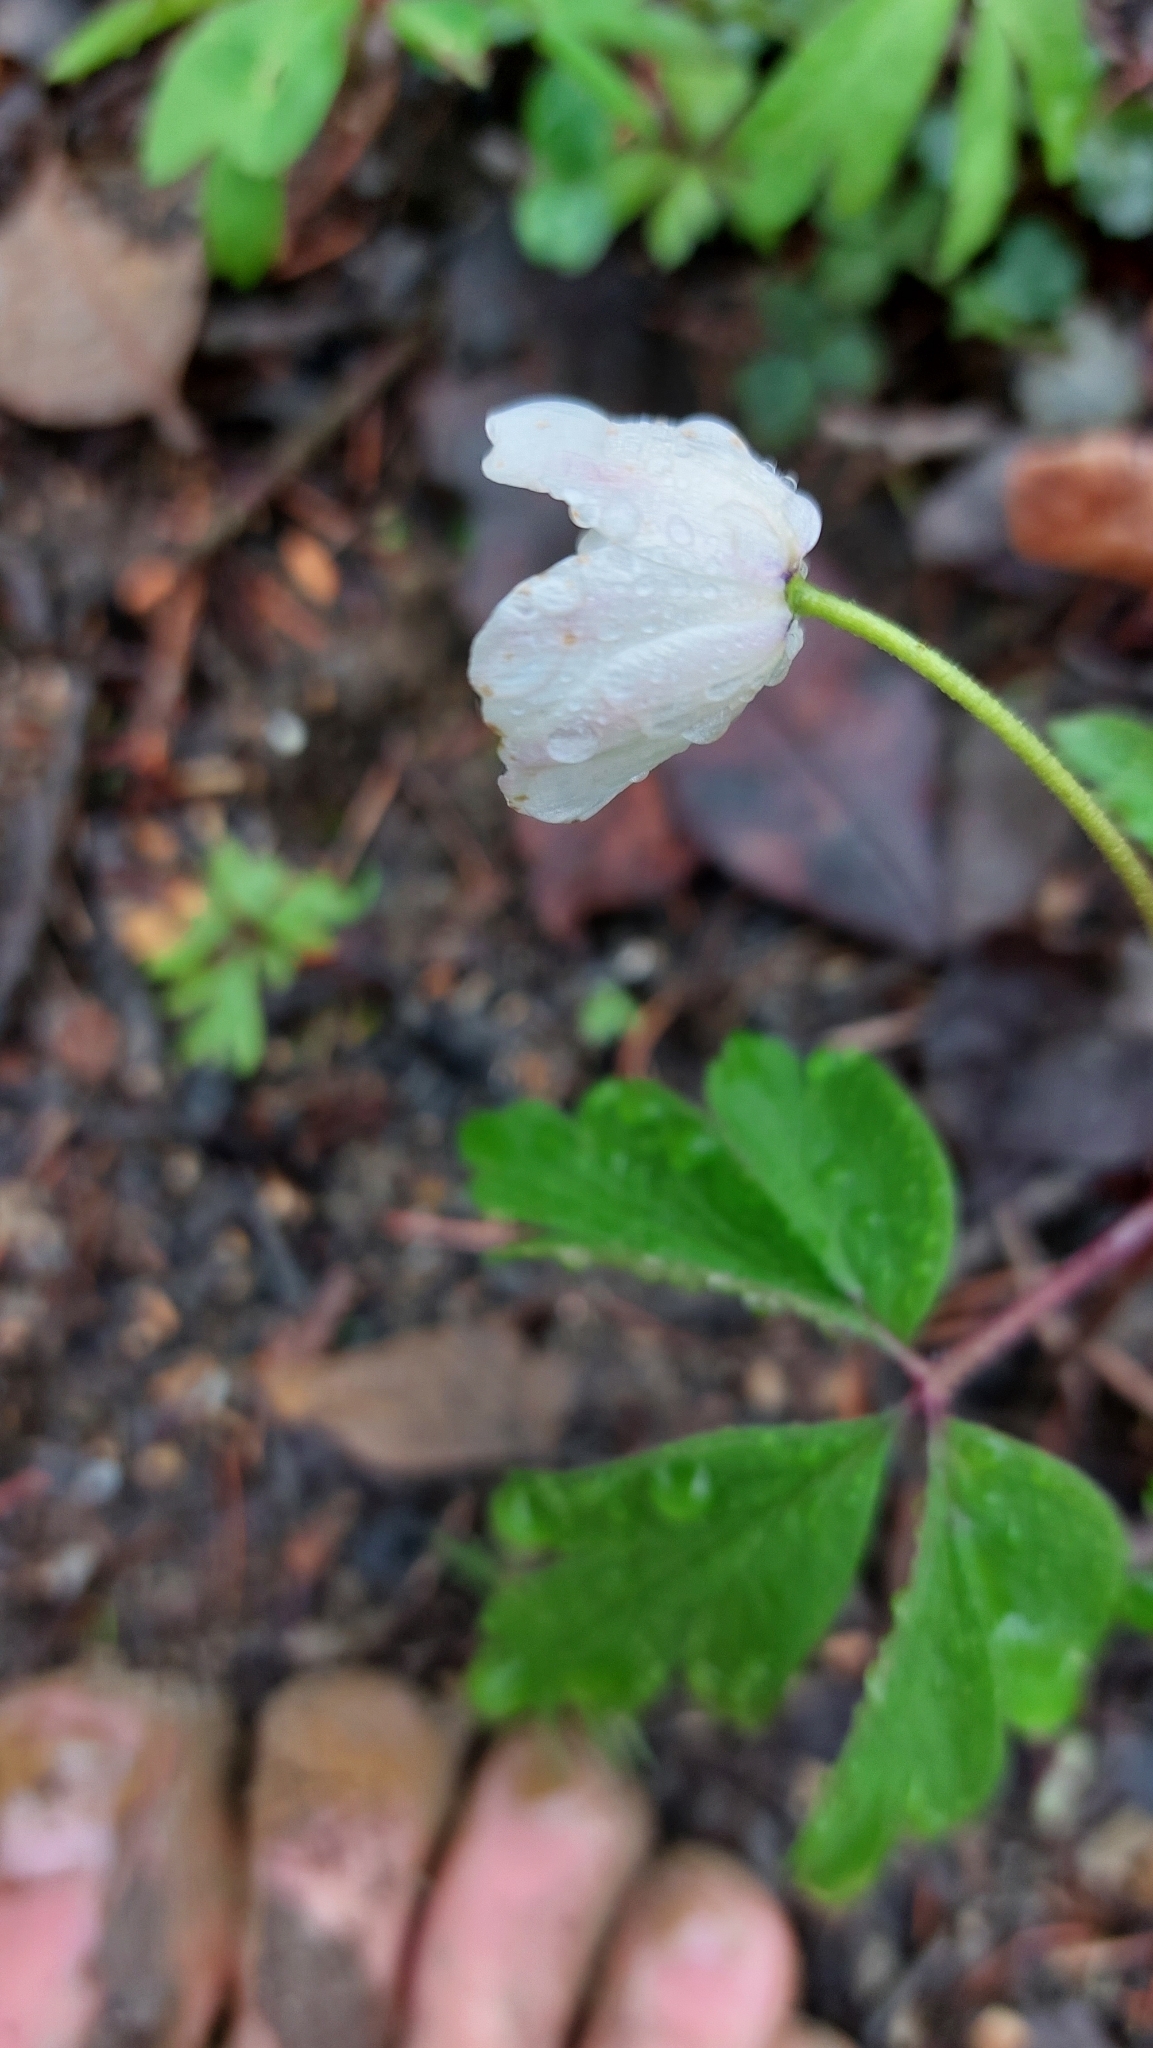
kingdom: Plantae
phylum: Tracheophyta
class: Magnoliopsida
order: Ranunculales
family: Ranunculaceae
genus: Anemone
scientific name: Anemone nemorosa
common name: Wood anemone
